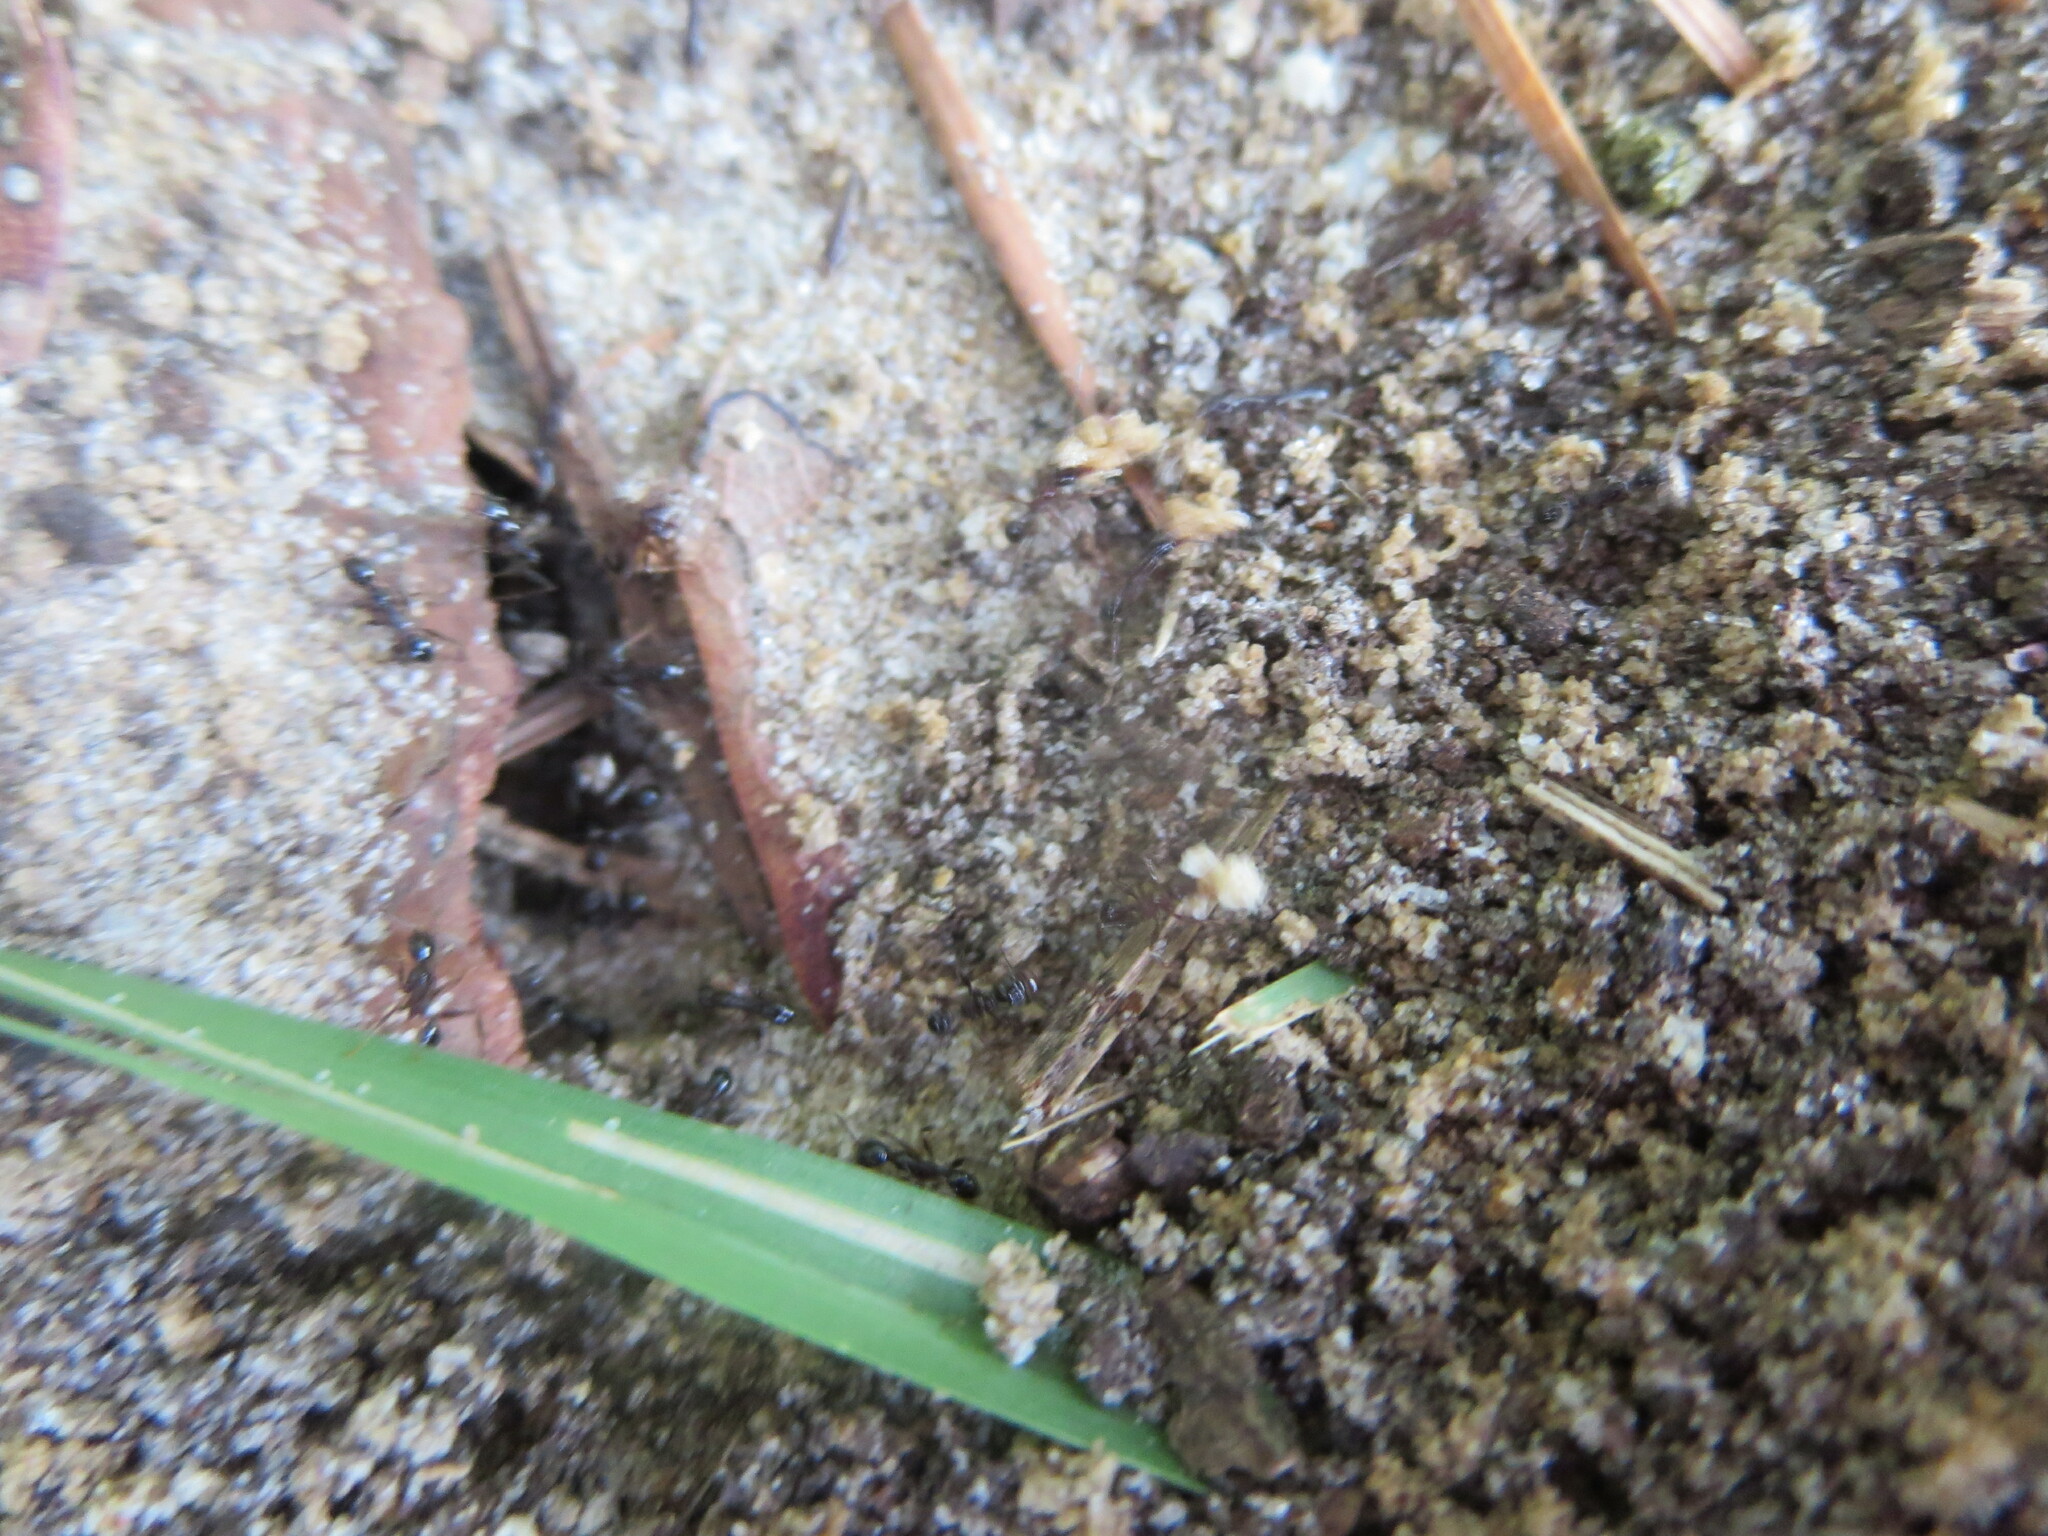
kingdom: Animalia
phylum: Arthropoda
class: Insecta
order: Hymenoptera
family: Formicidae
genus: Pheidole
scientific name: Pheidole obscurithorax
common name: Obscure big-headed ant
